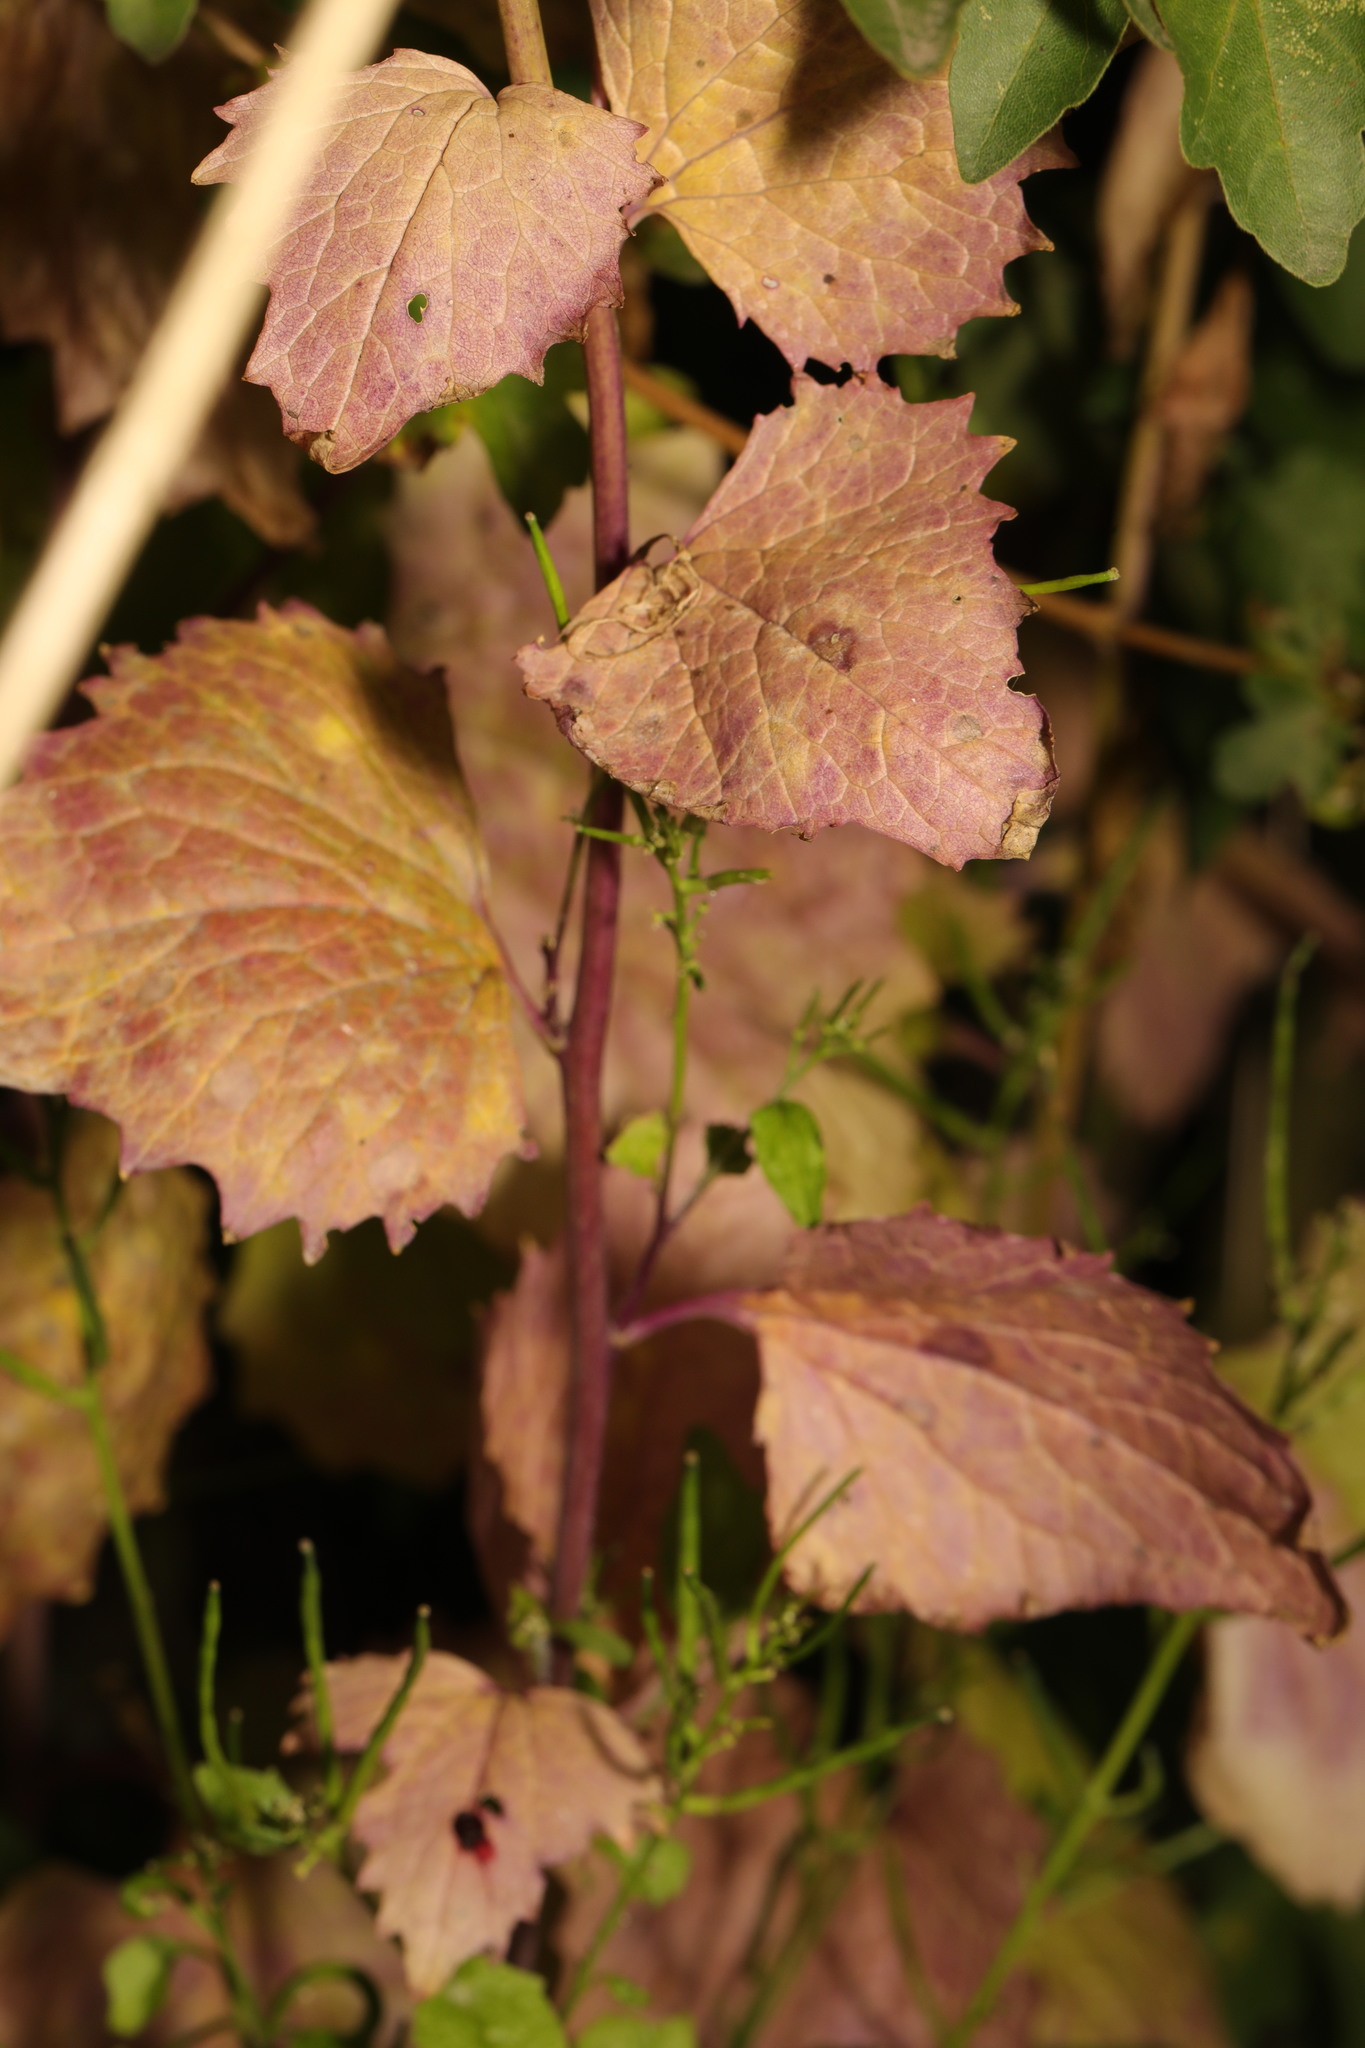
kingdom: Plantae
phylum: Tracheophyta
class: Magnoliopsida
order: Brassicales
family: Brassicaceae
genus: Alliaria
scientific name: Alliaria petiolata
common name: Garlic mustard
